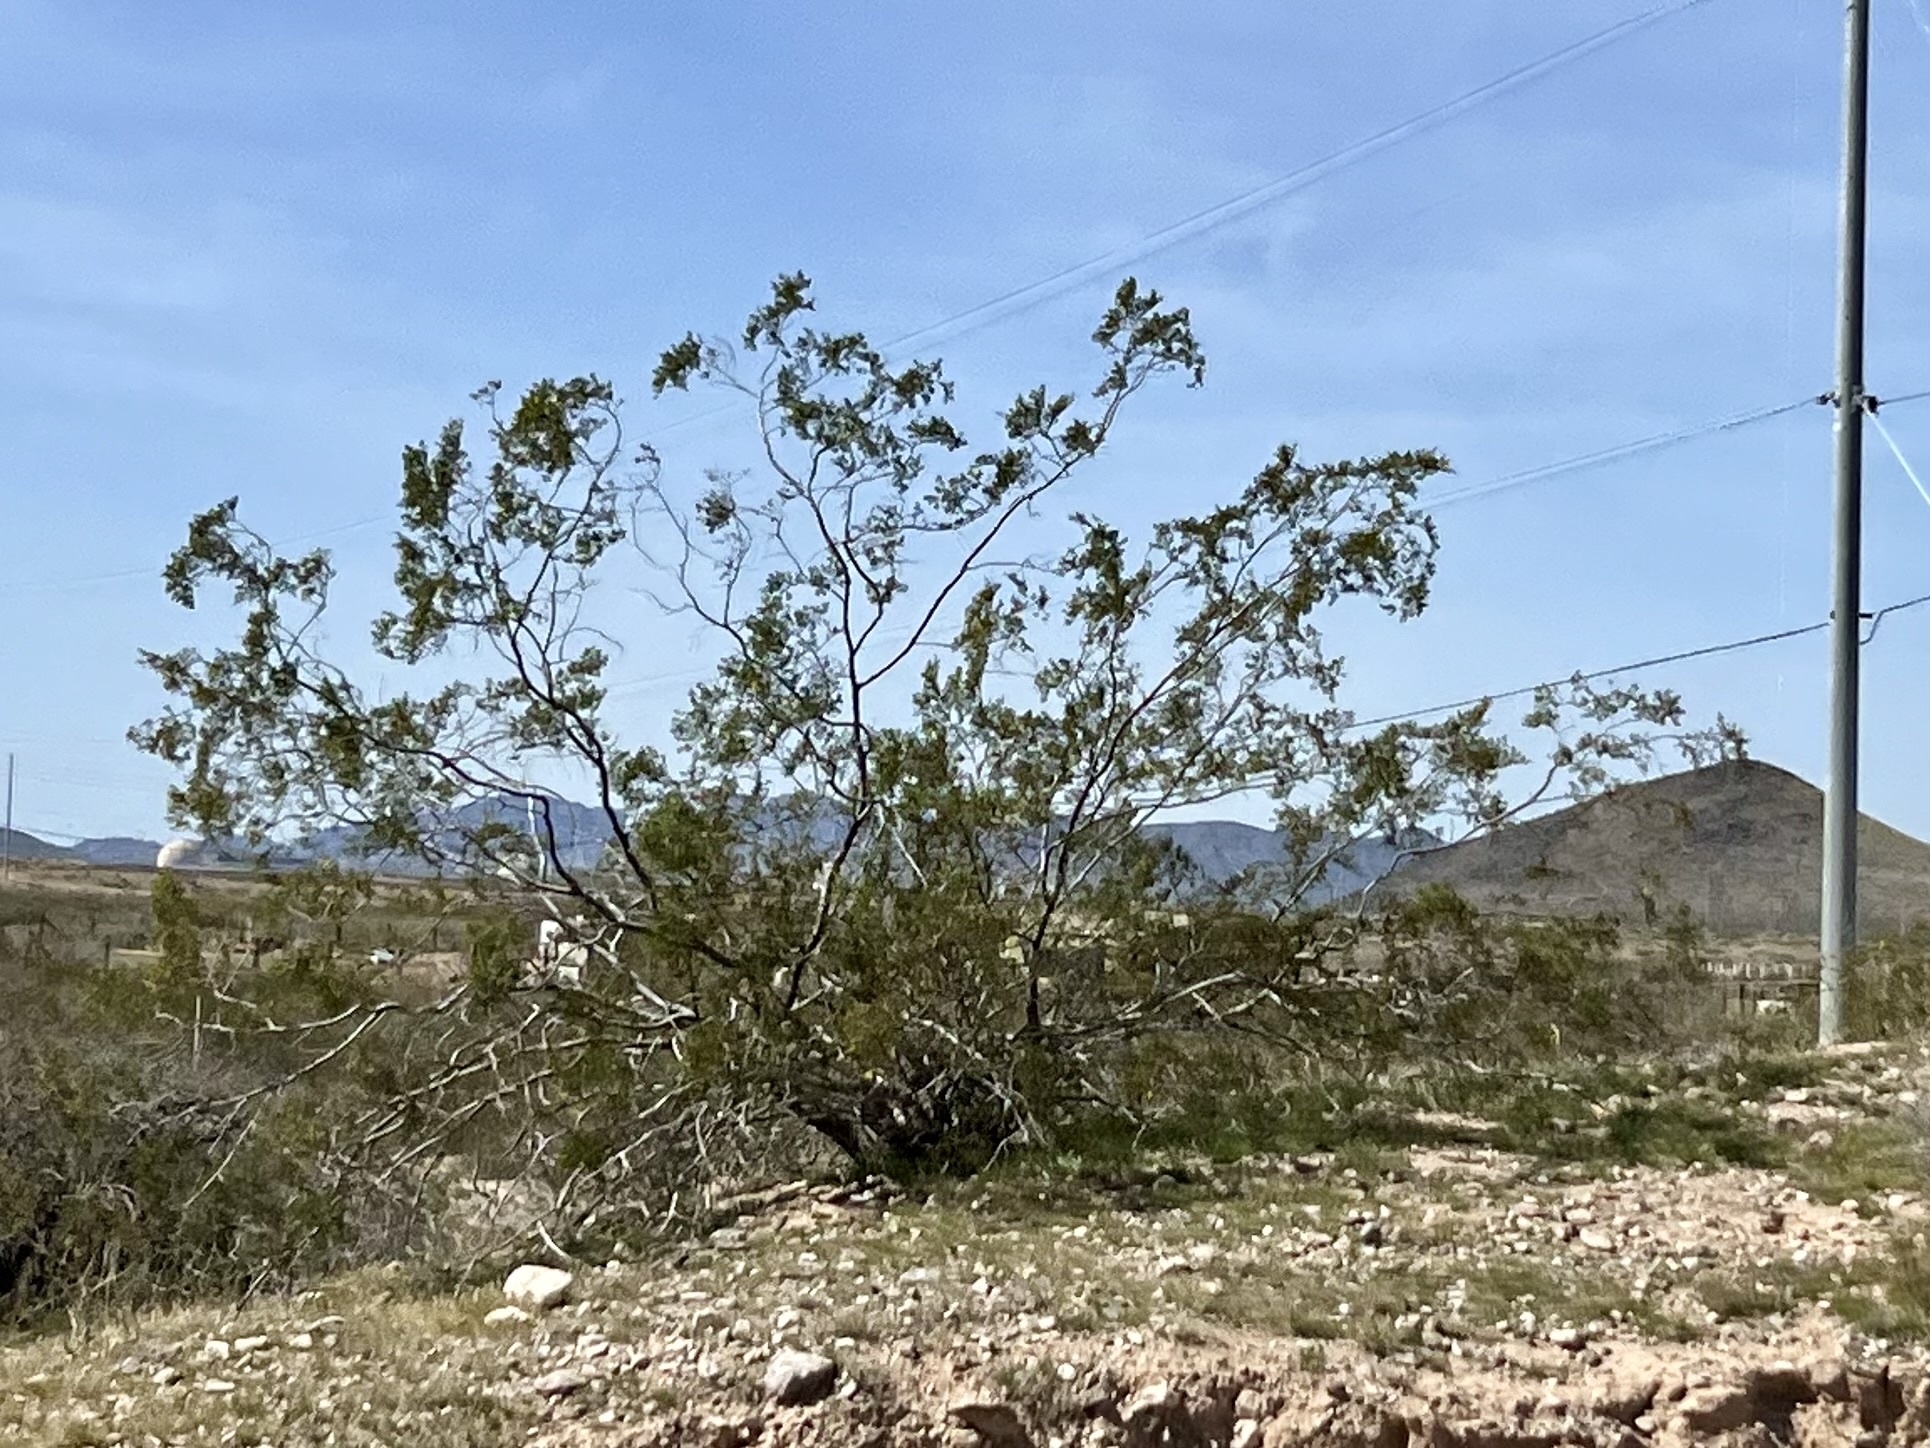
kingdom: Plantae
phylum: Tracheophyta
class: Magnoliopsida
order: Zygophyllales
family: Zygophyllaceae
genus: Larrea
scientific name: Larrea tridentata
